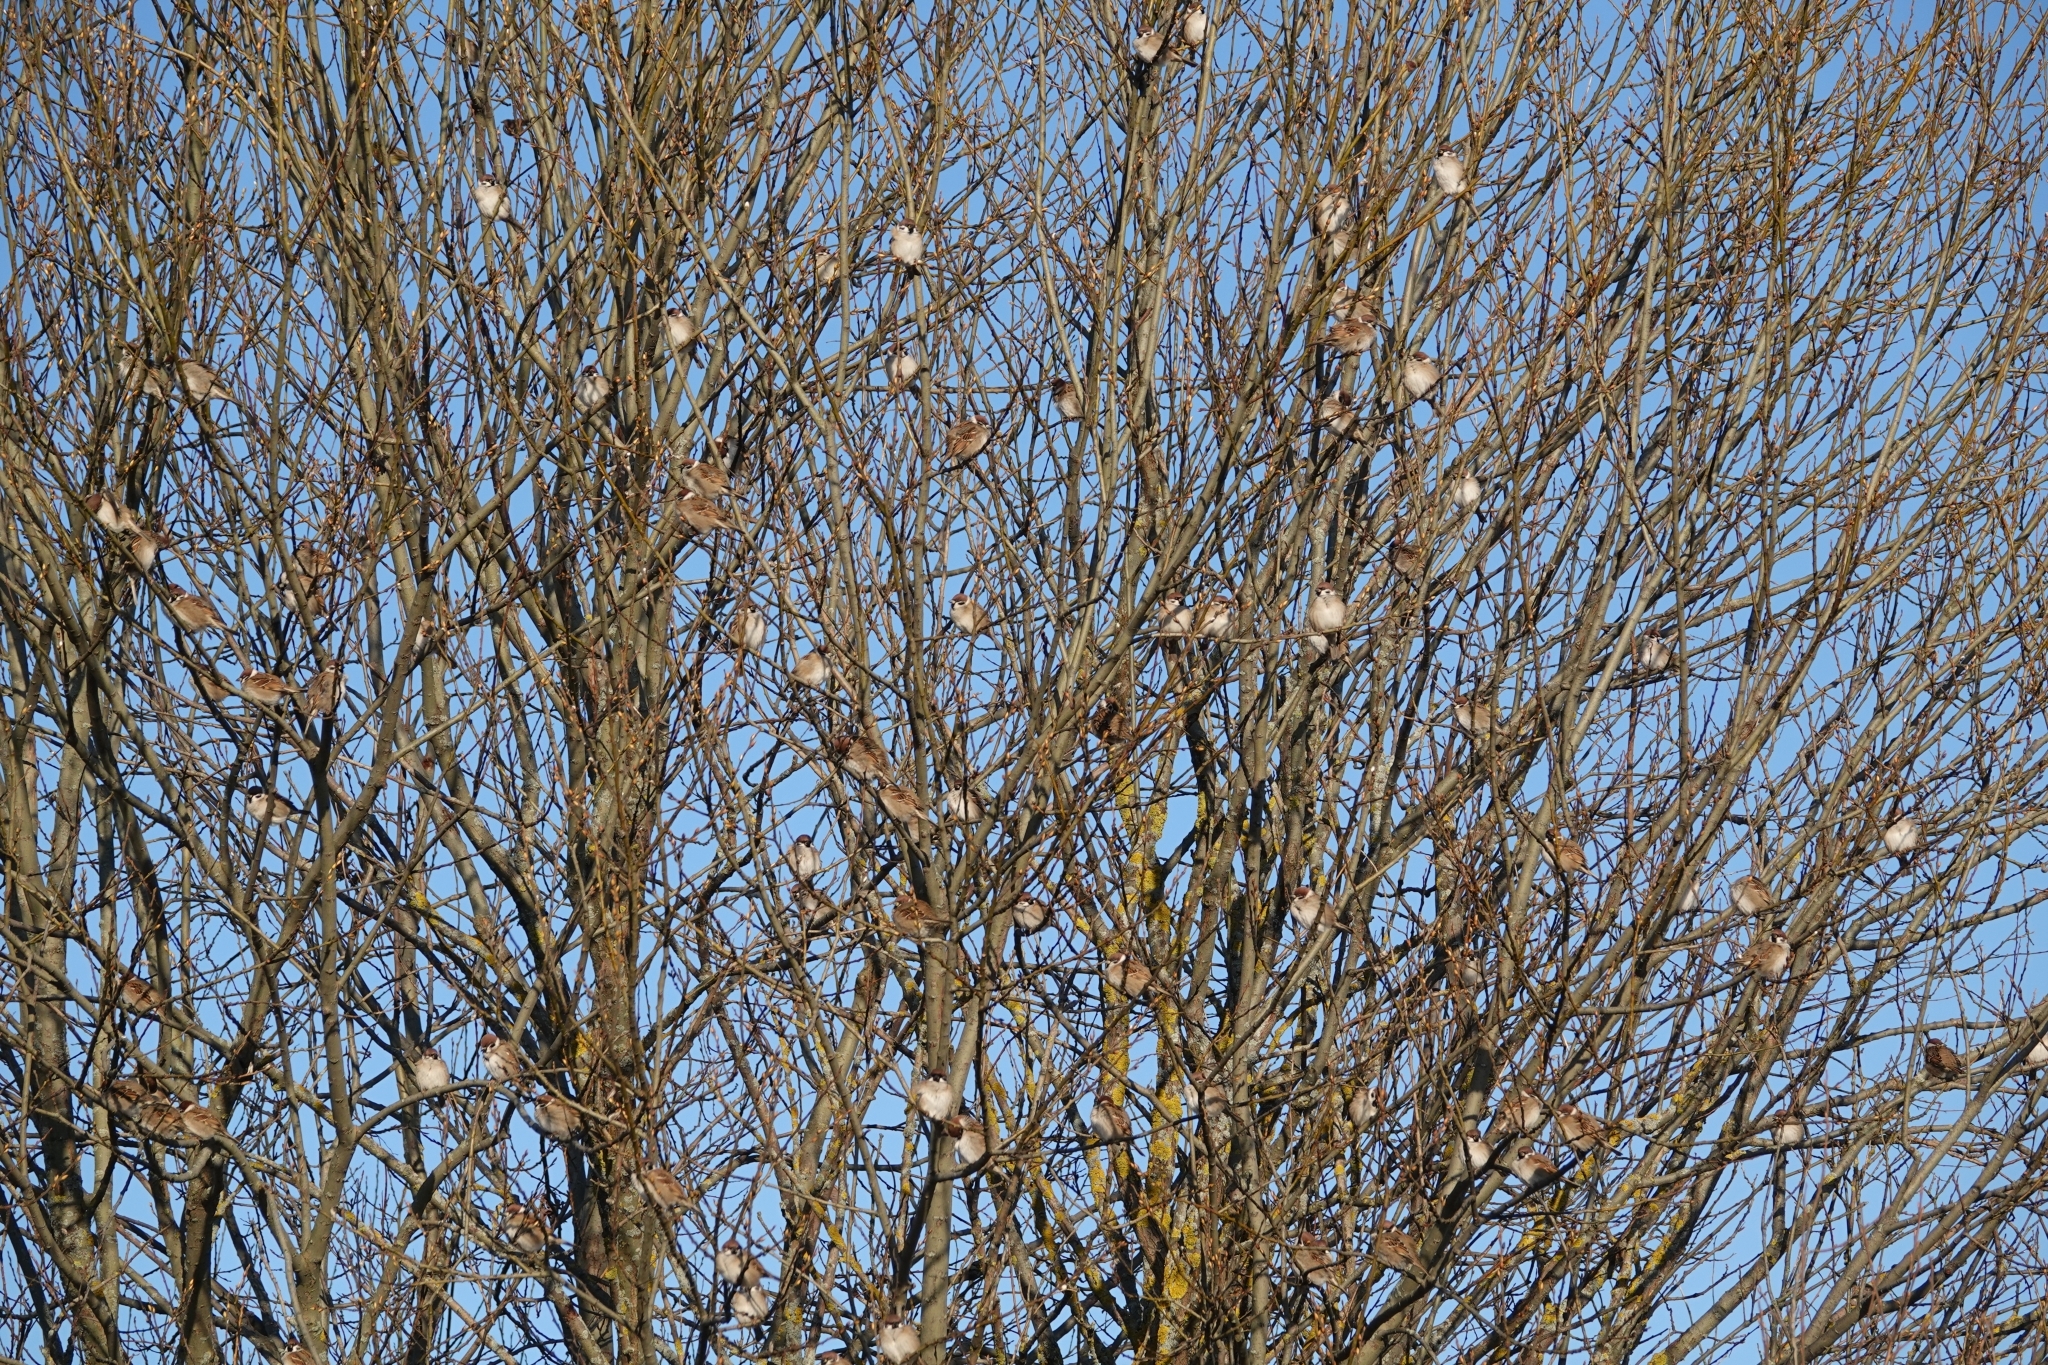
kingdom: Animalia
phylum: Chordata
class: Aves
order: Passeriformes
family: Passeridae
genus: Passer
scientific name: Passer montanus
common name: Eurasian tree sparrow
